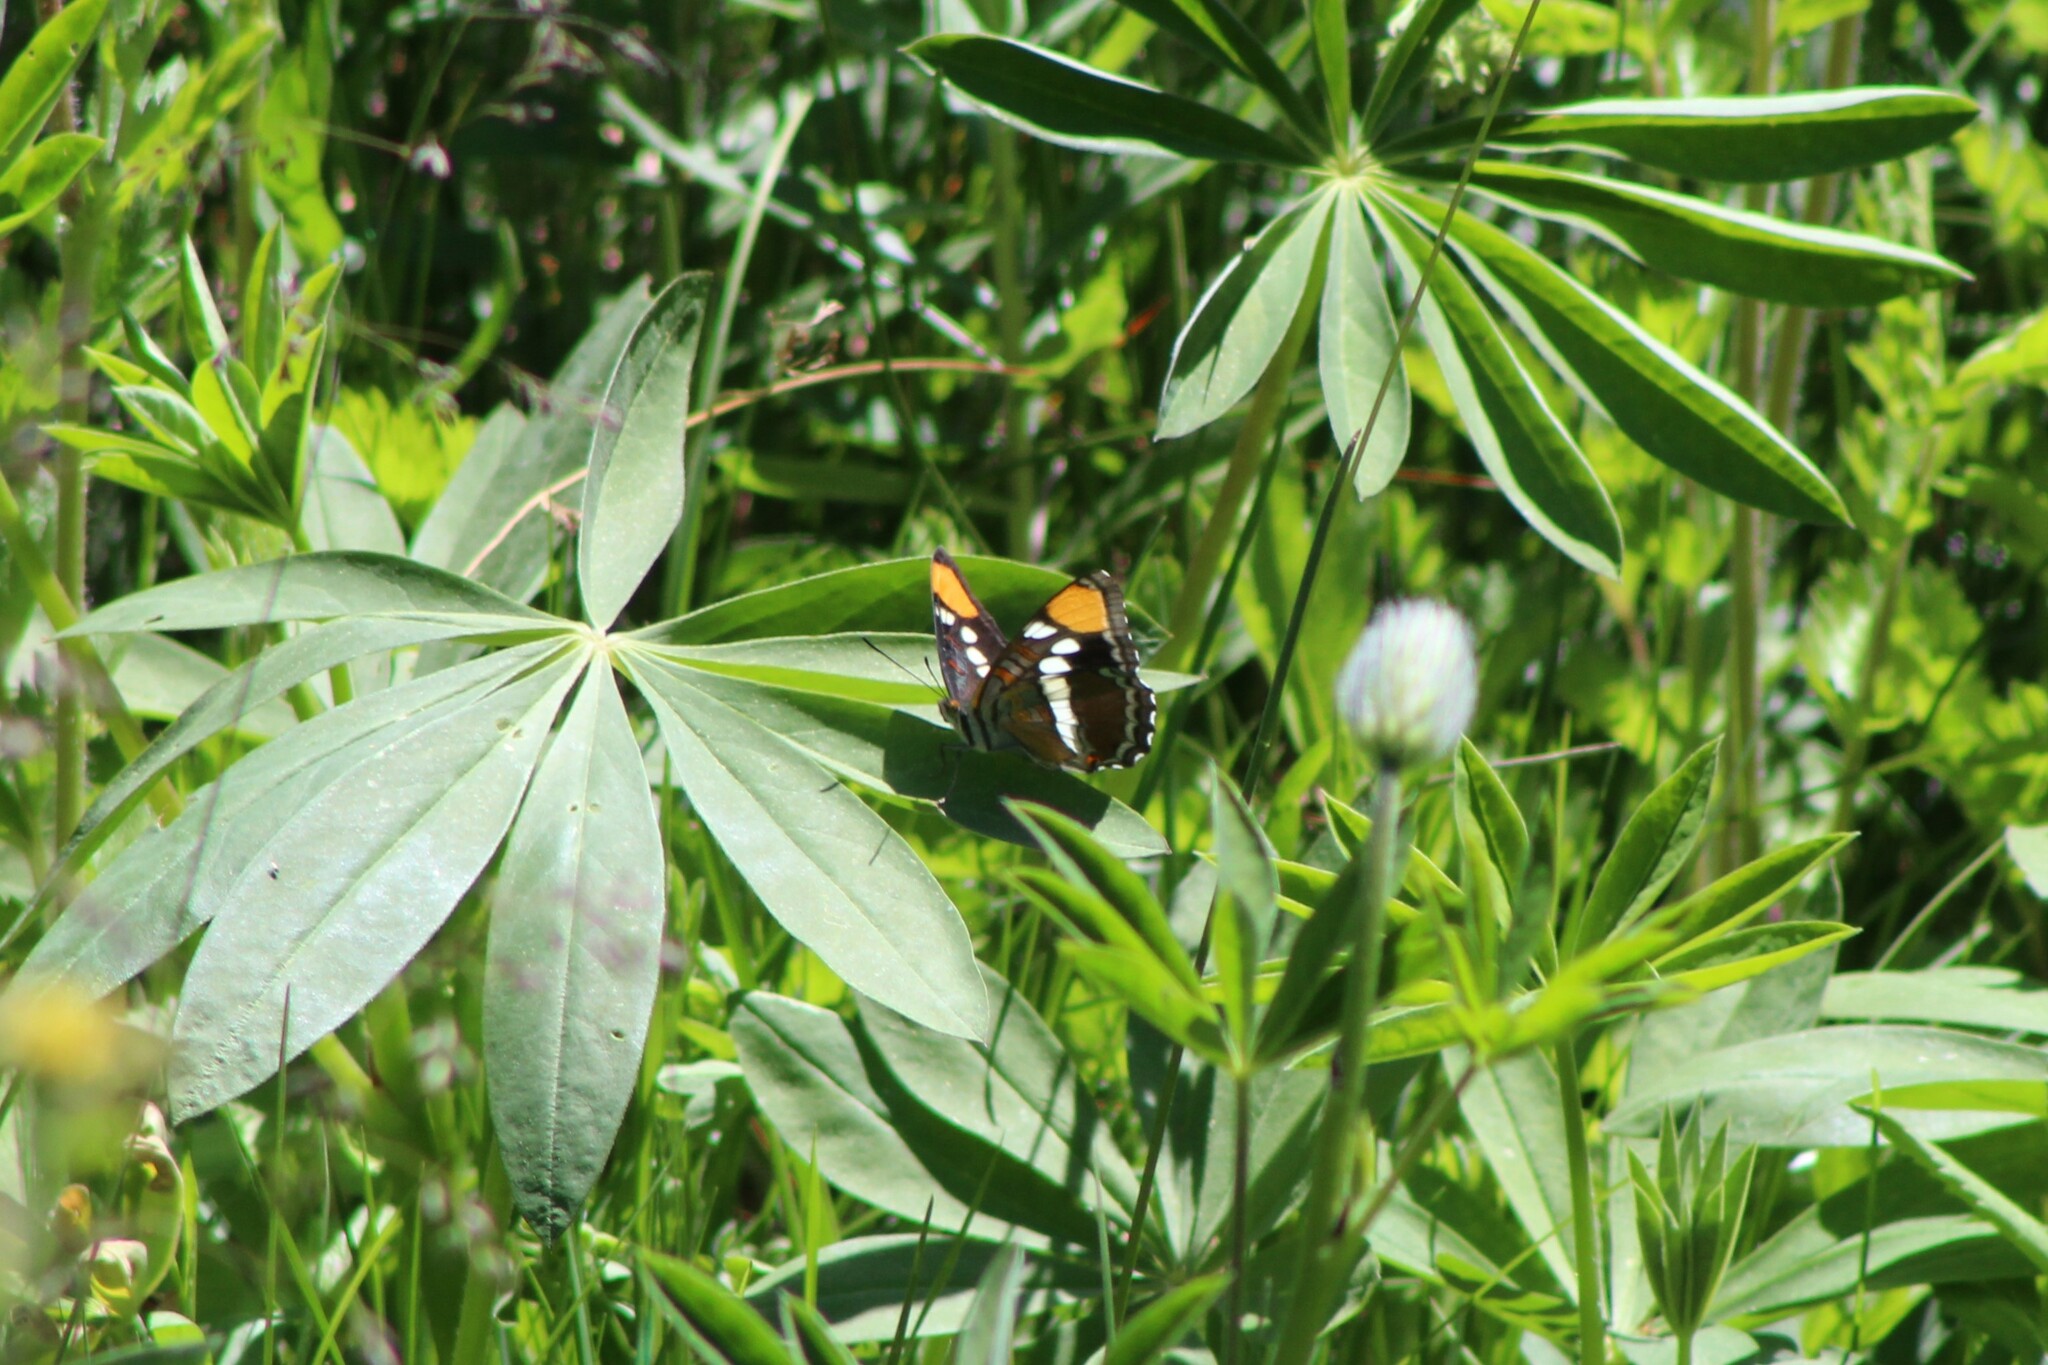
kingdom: Animalia
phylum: Arthropoda
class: Insecta
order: Lepidoptera
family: Nymphalidae
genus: Limenitis
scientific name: Limenitis bredowii
